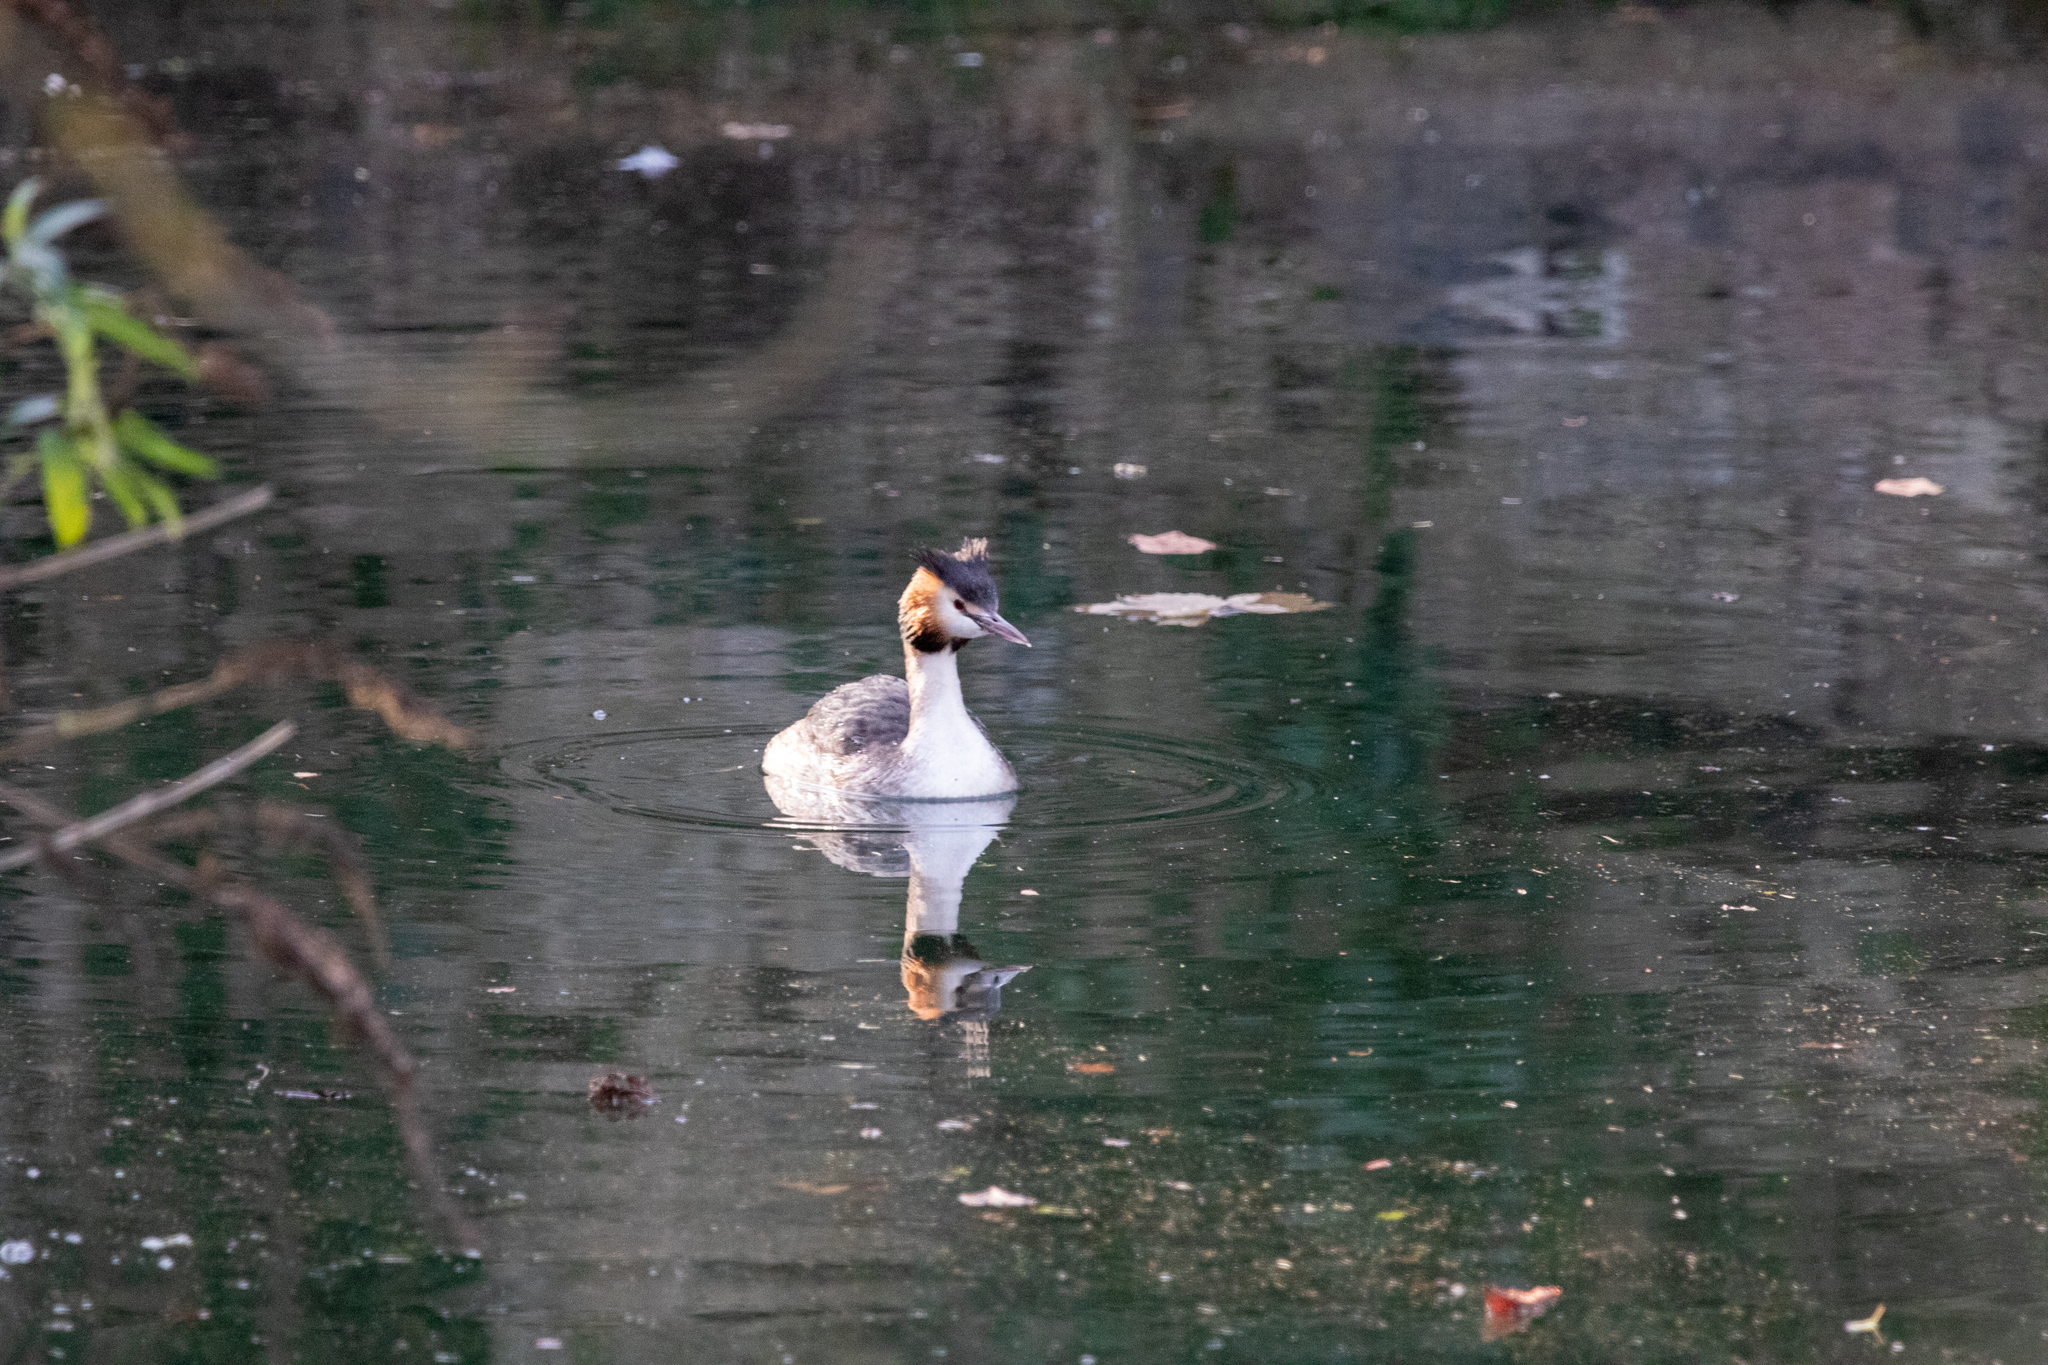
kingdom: Animalia
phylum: Chordata
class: Aves
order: Podicipediformes
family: Podicipedidae
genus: Podiceps
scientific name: Podiceps cristatus
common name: Great crested grebe
